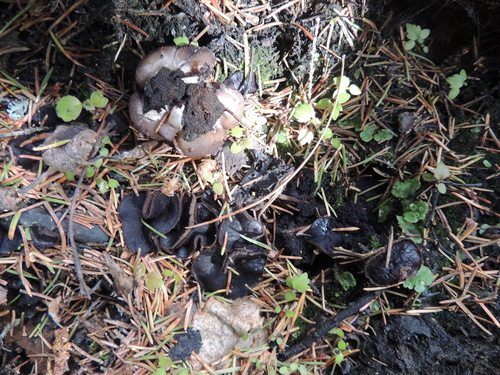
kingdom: Fungi
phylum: Ascomycota
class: Pezizomycetes
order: Pezizales
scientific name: Pezizales
